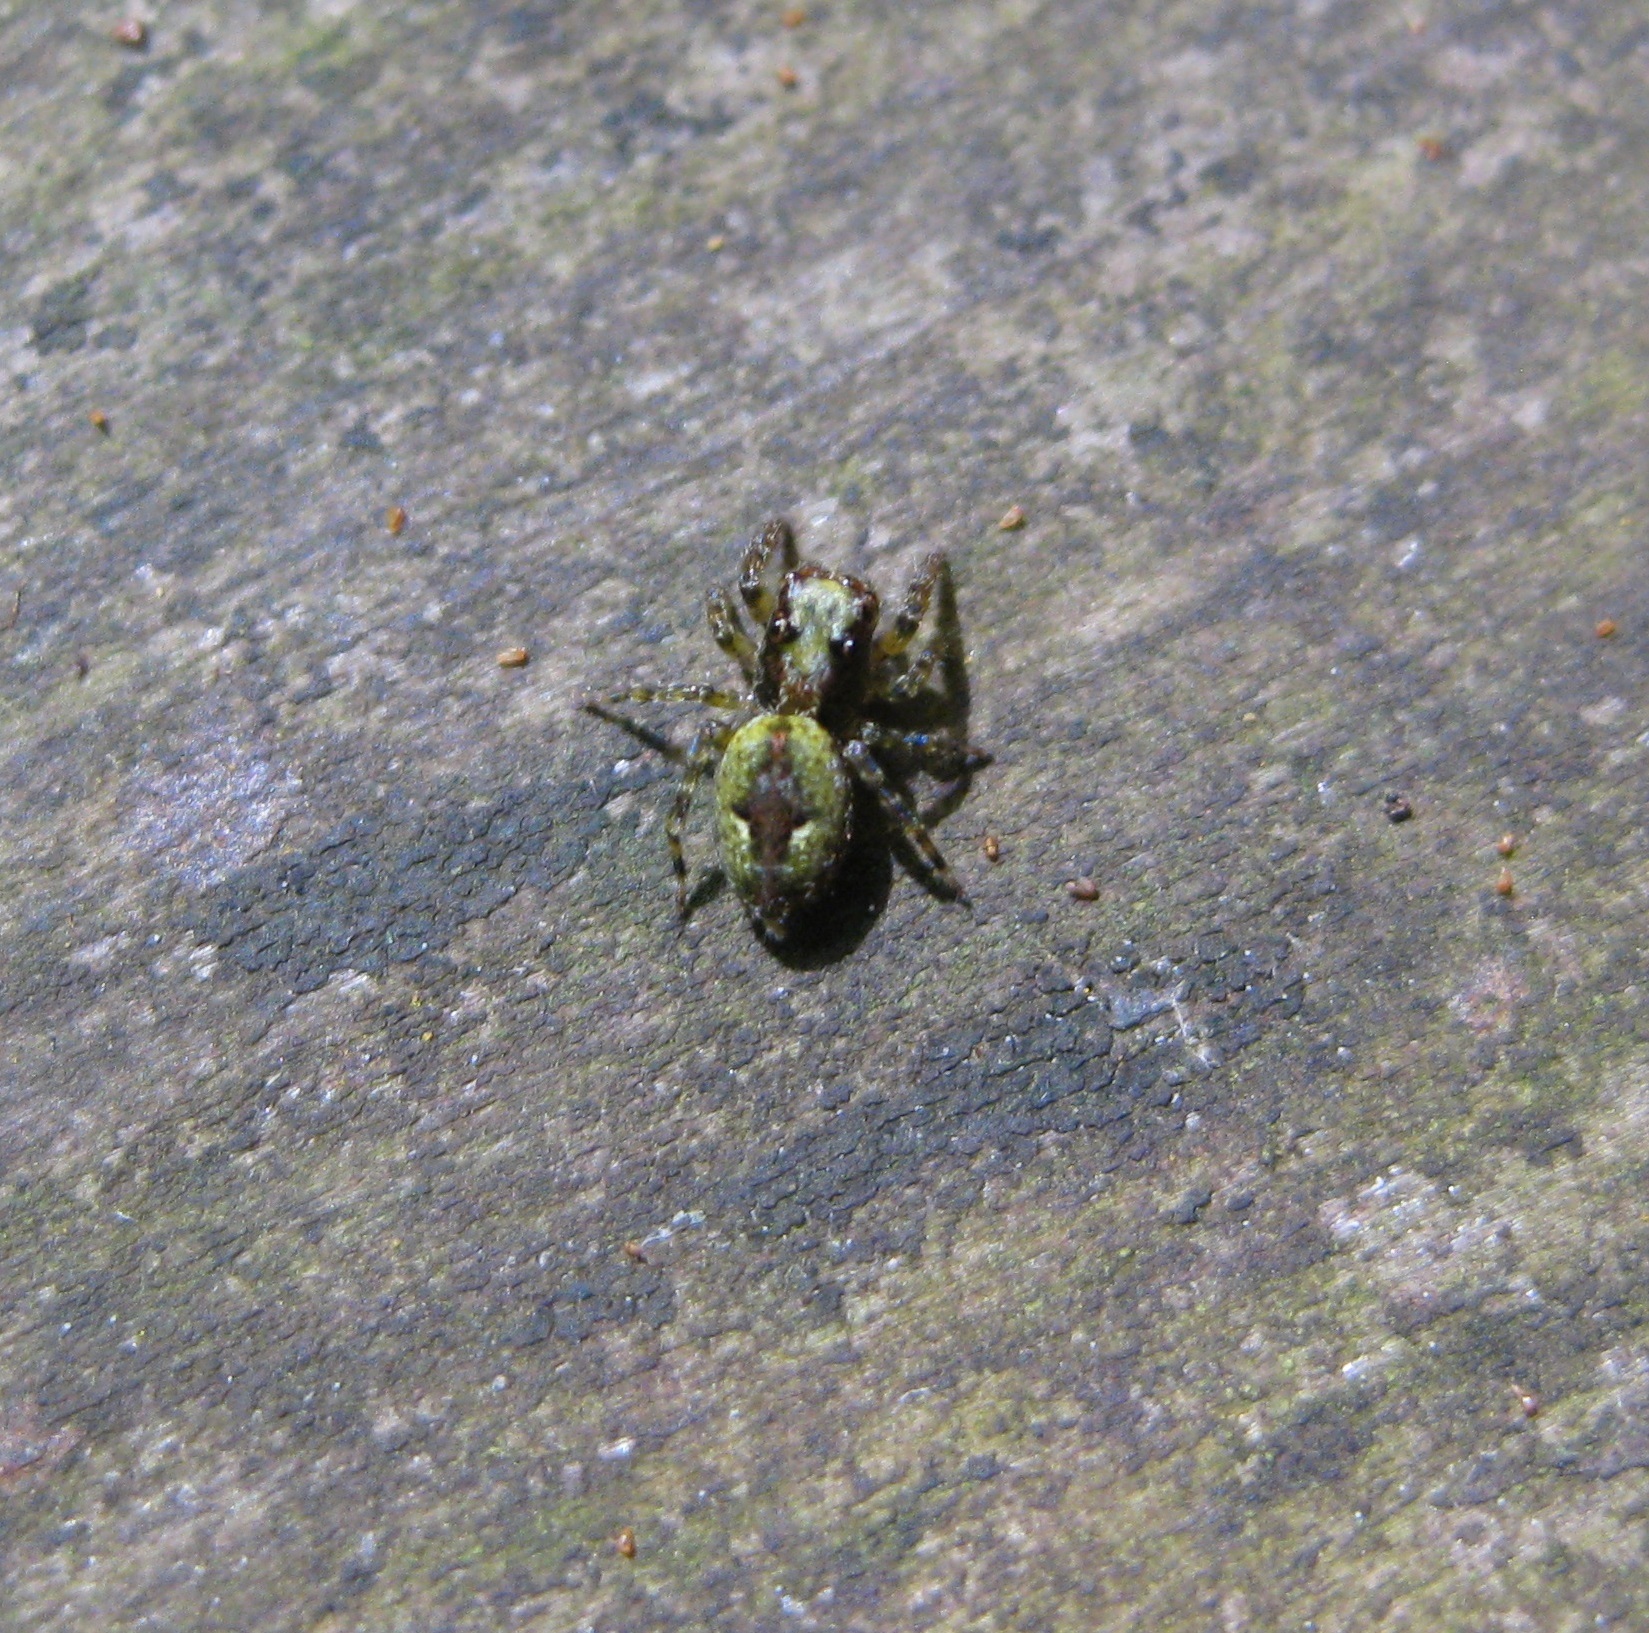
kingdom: Animalia
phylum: Arthropoda
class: Arachnida
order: Araneae
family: Salticidae
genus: Hinewaia
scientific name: Hinewaia embolica
